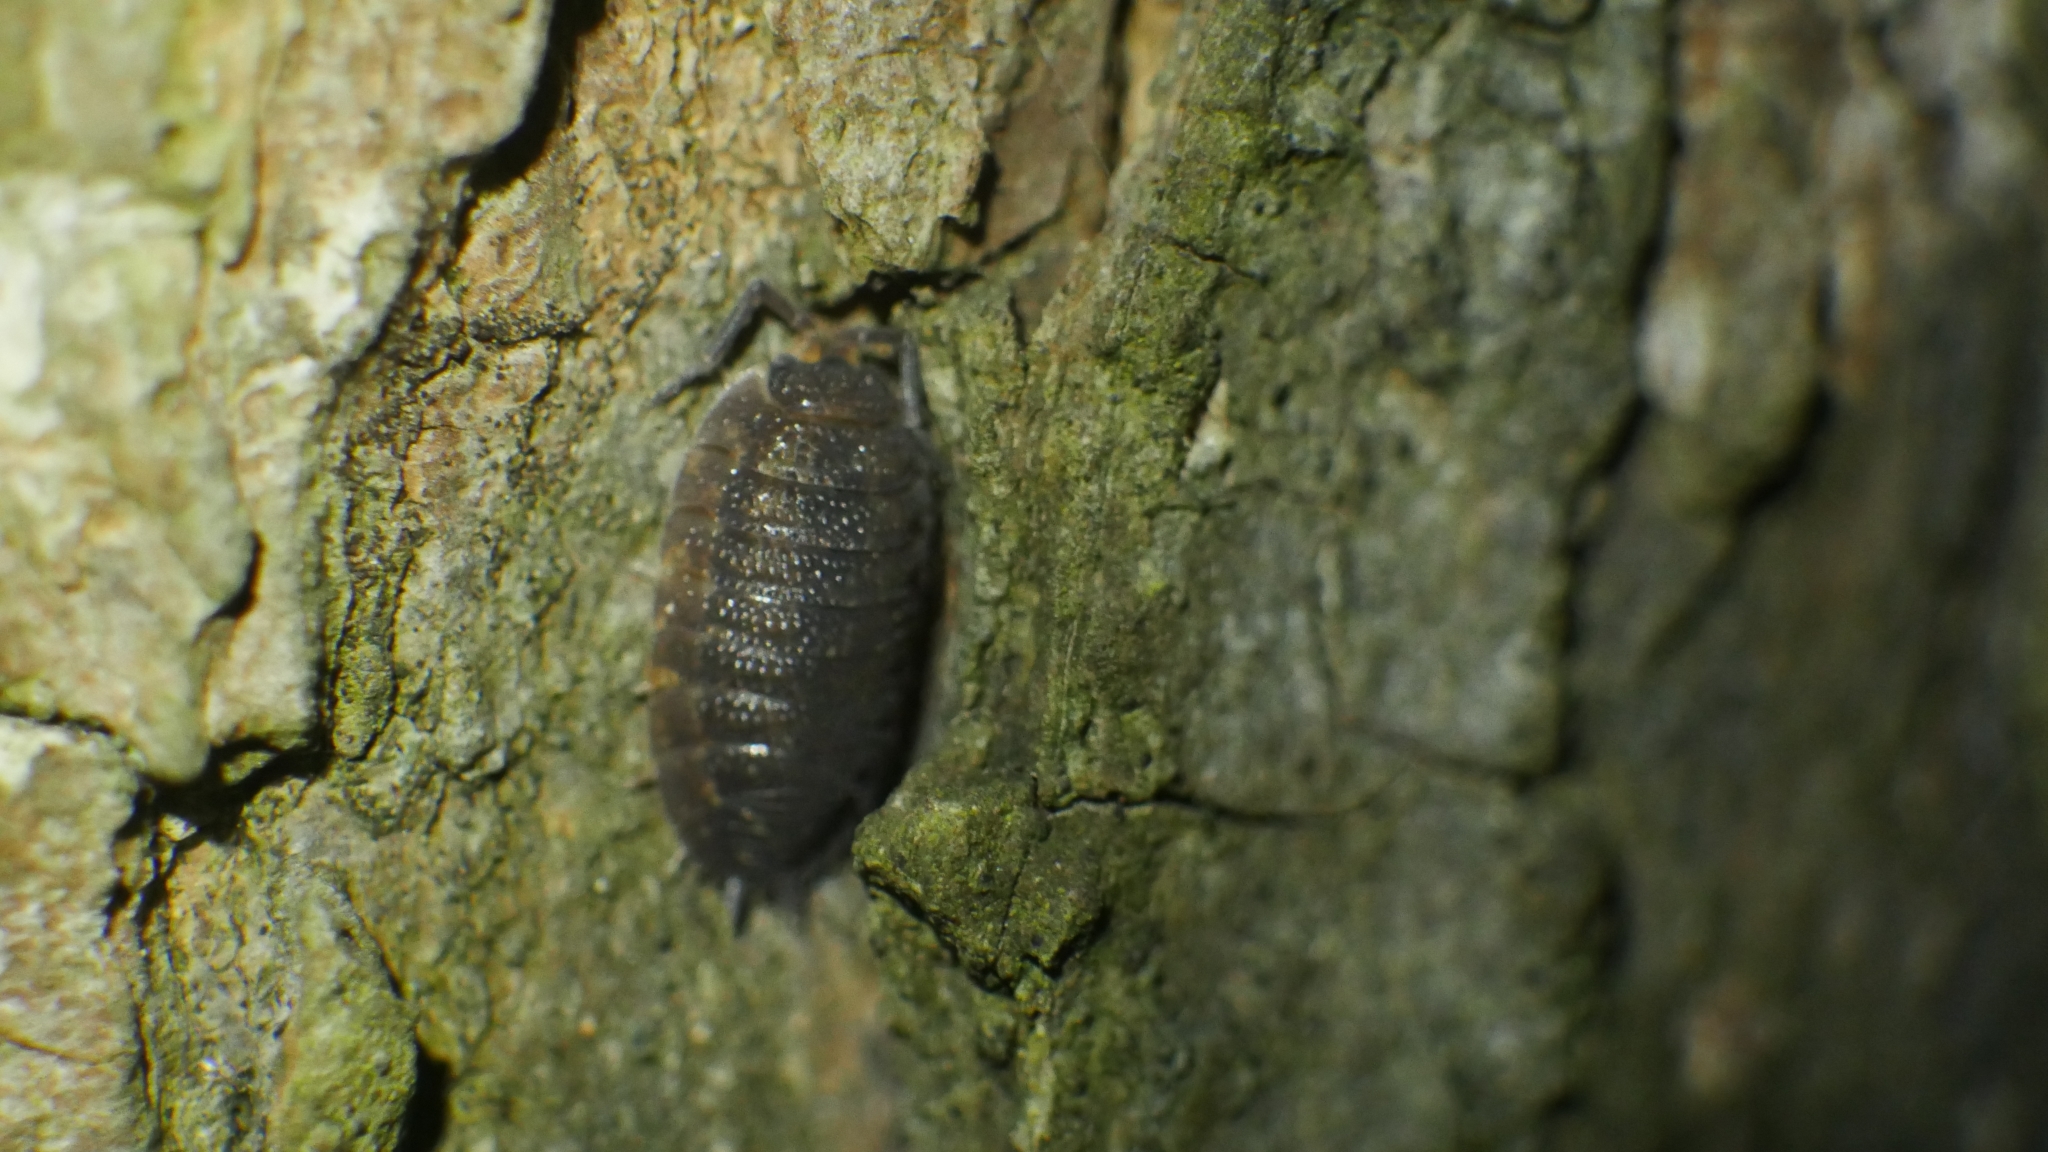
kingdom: Animalia
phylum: Arthropoda
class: Malacostraca
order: Isopoda
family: Porcellionidae
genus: Porcellio
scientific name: Porcellio scaber
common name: Common rough woodlouse
